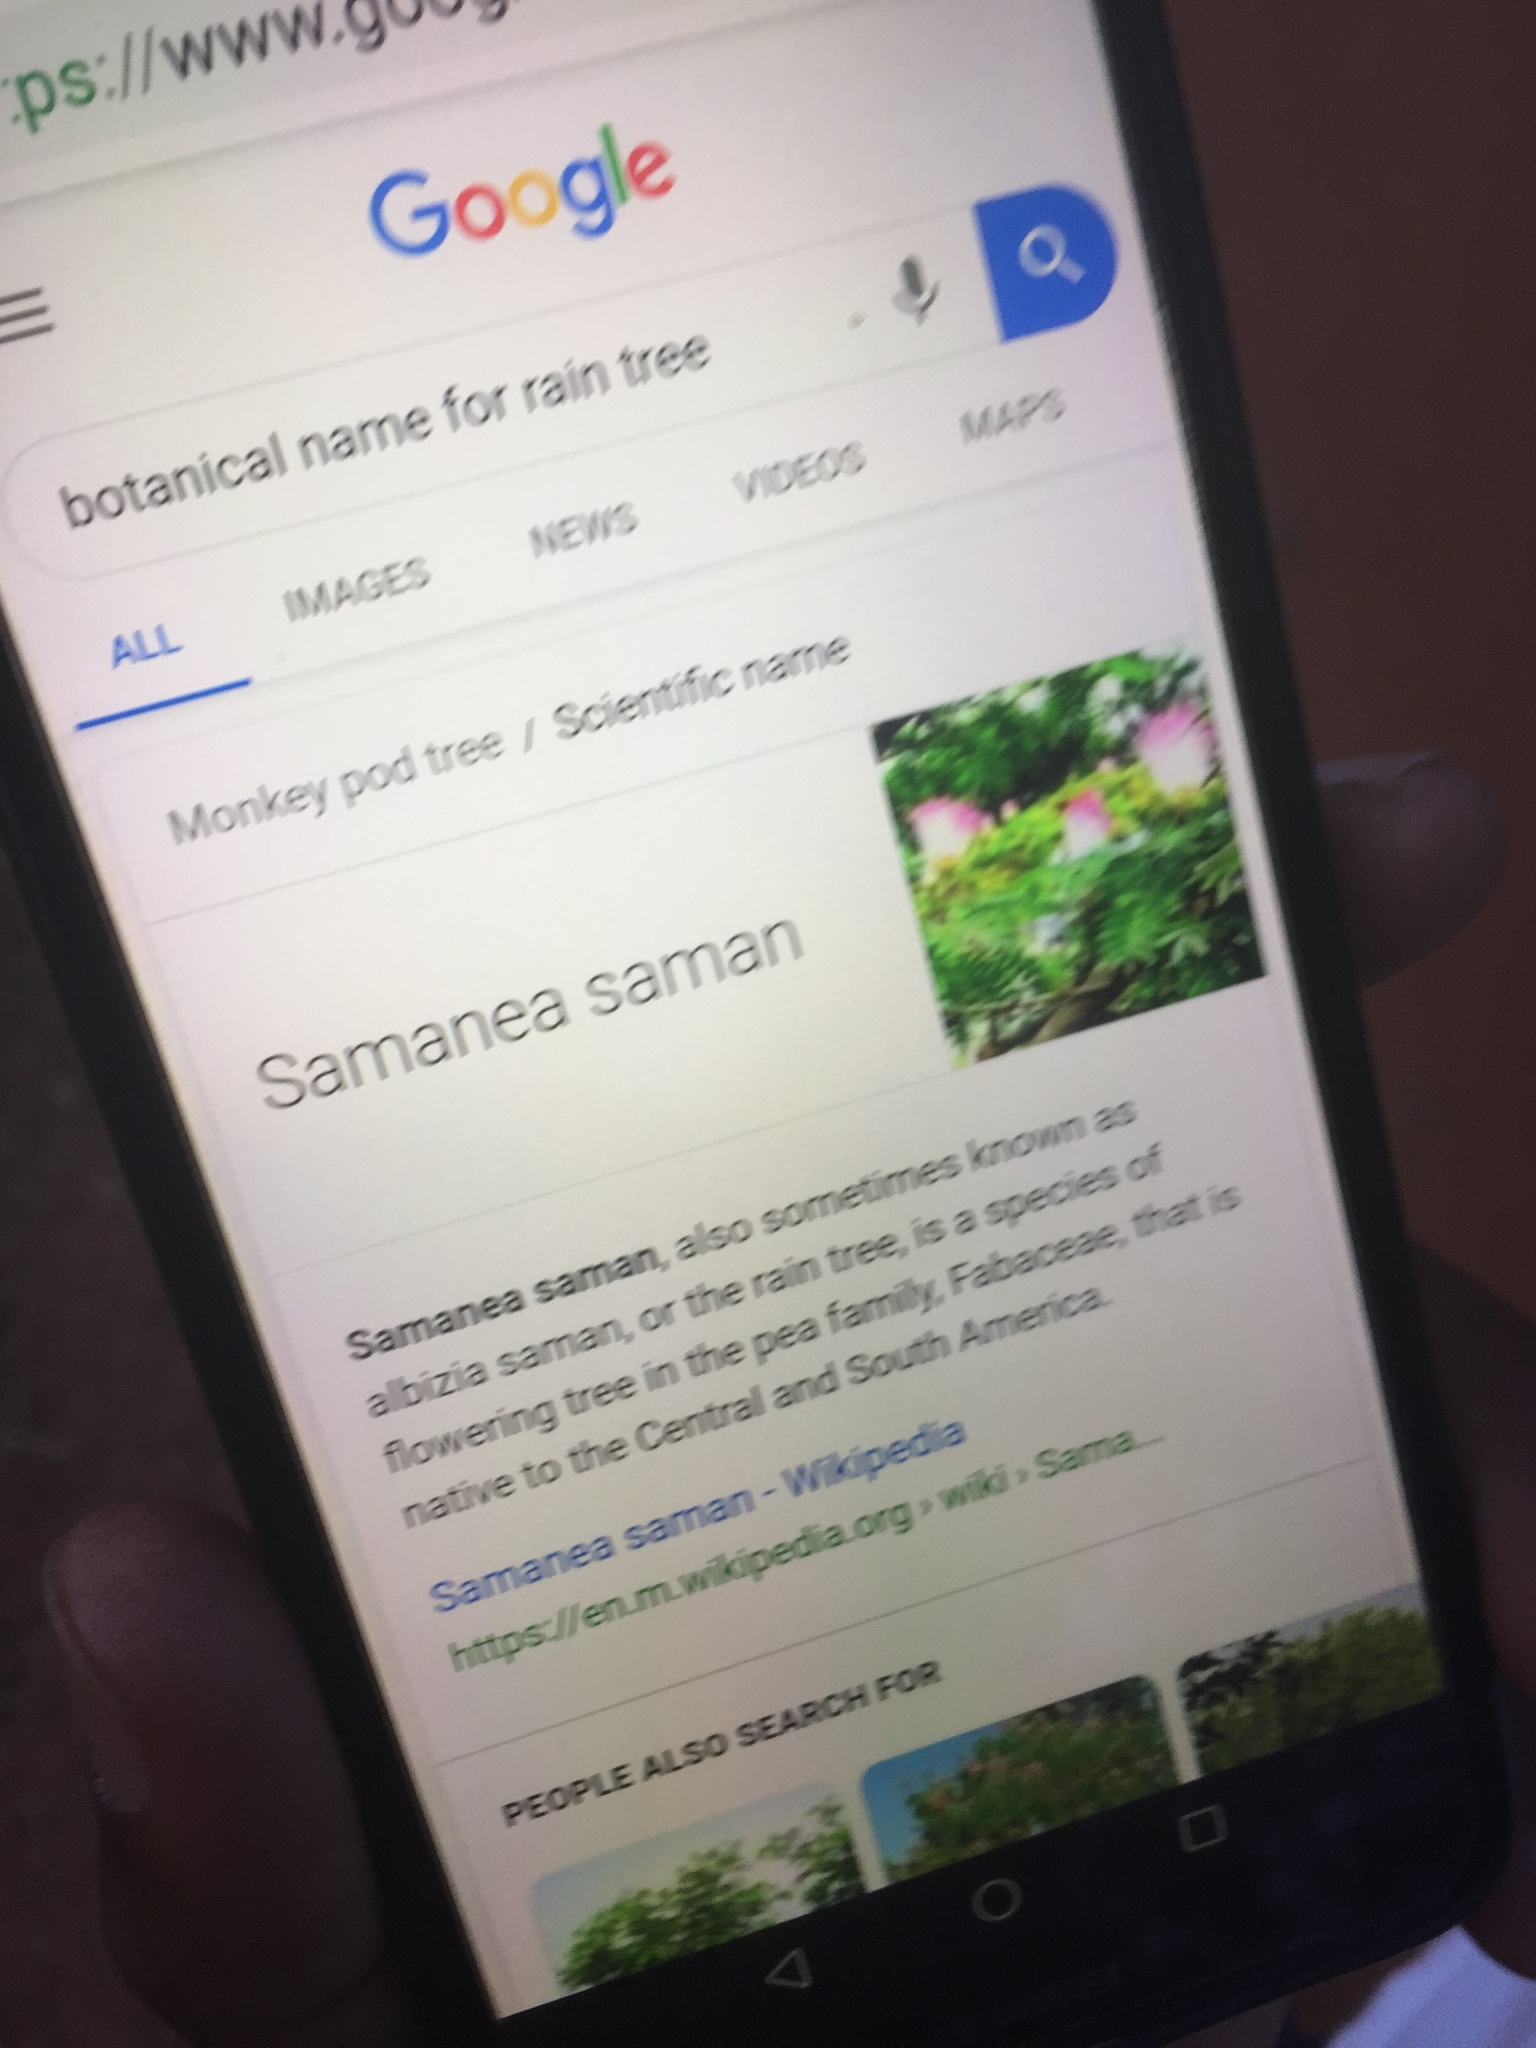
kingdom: Plantae
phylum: Tracheophyta
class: Magnoliopsida
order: Fabales
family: Fabaceae
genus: Samanea
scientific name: Samanea saman
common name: Raintree
